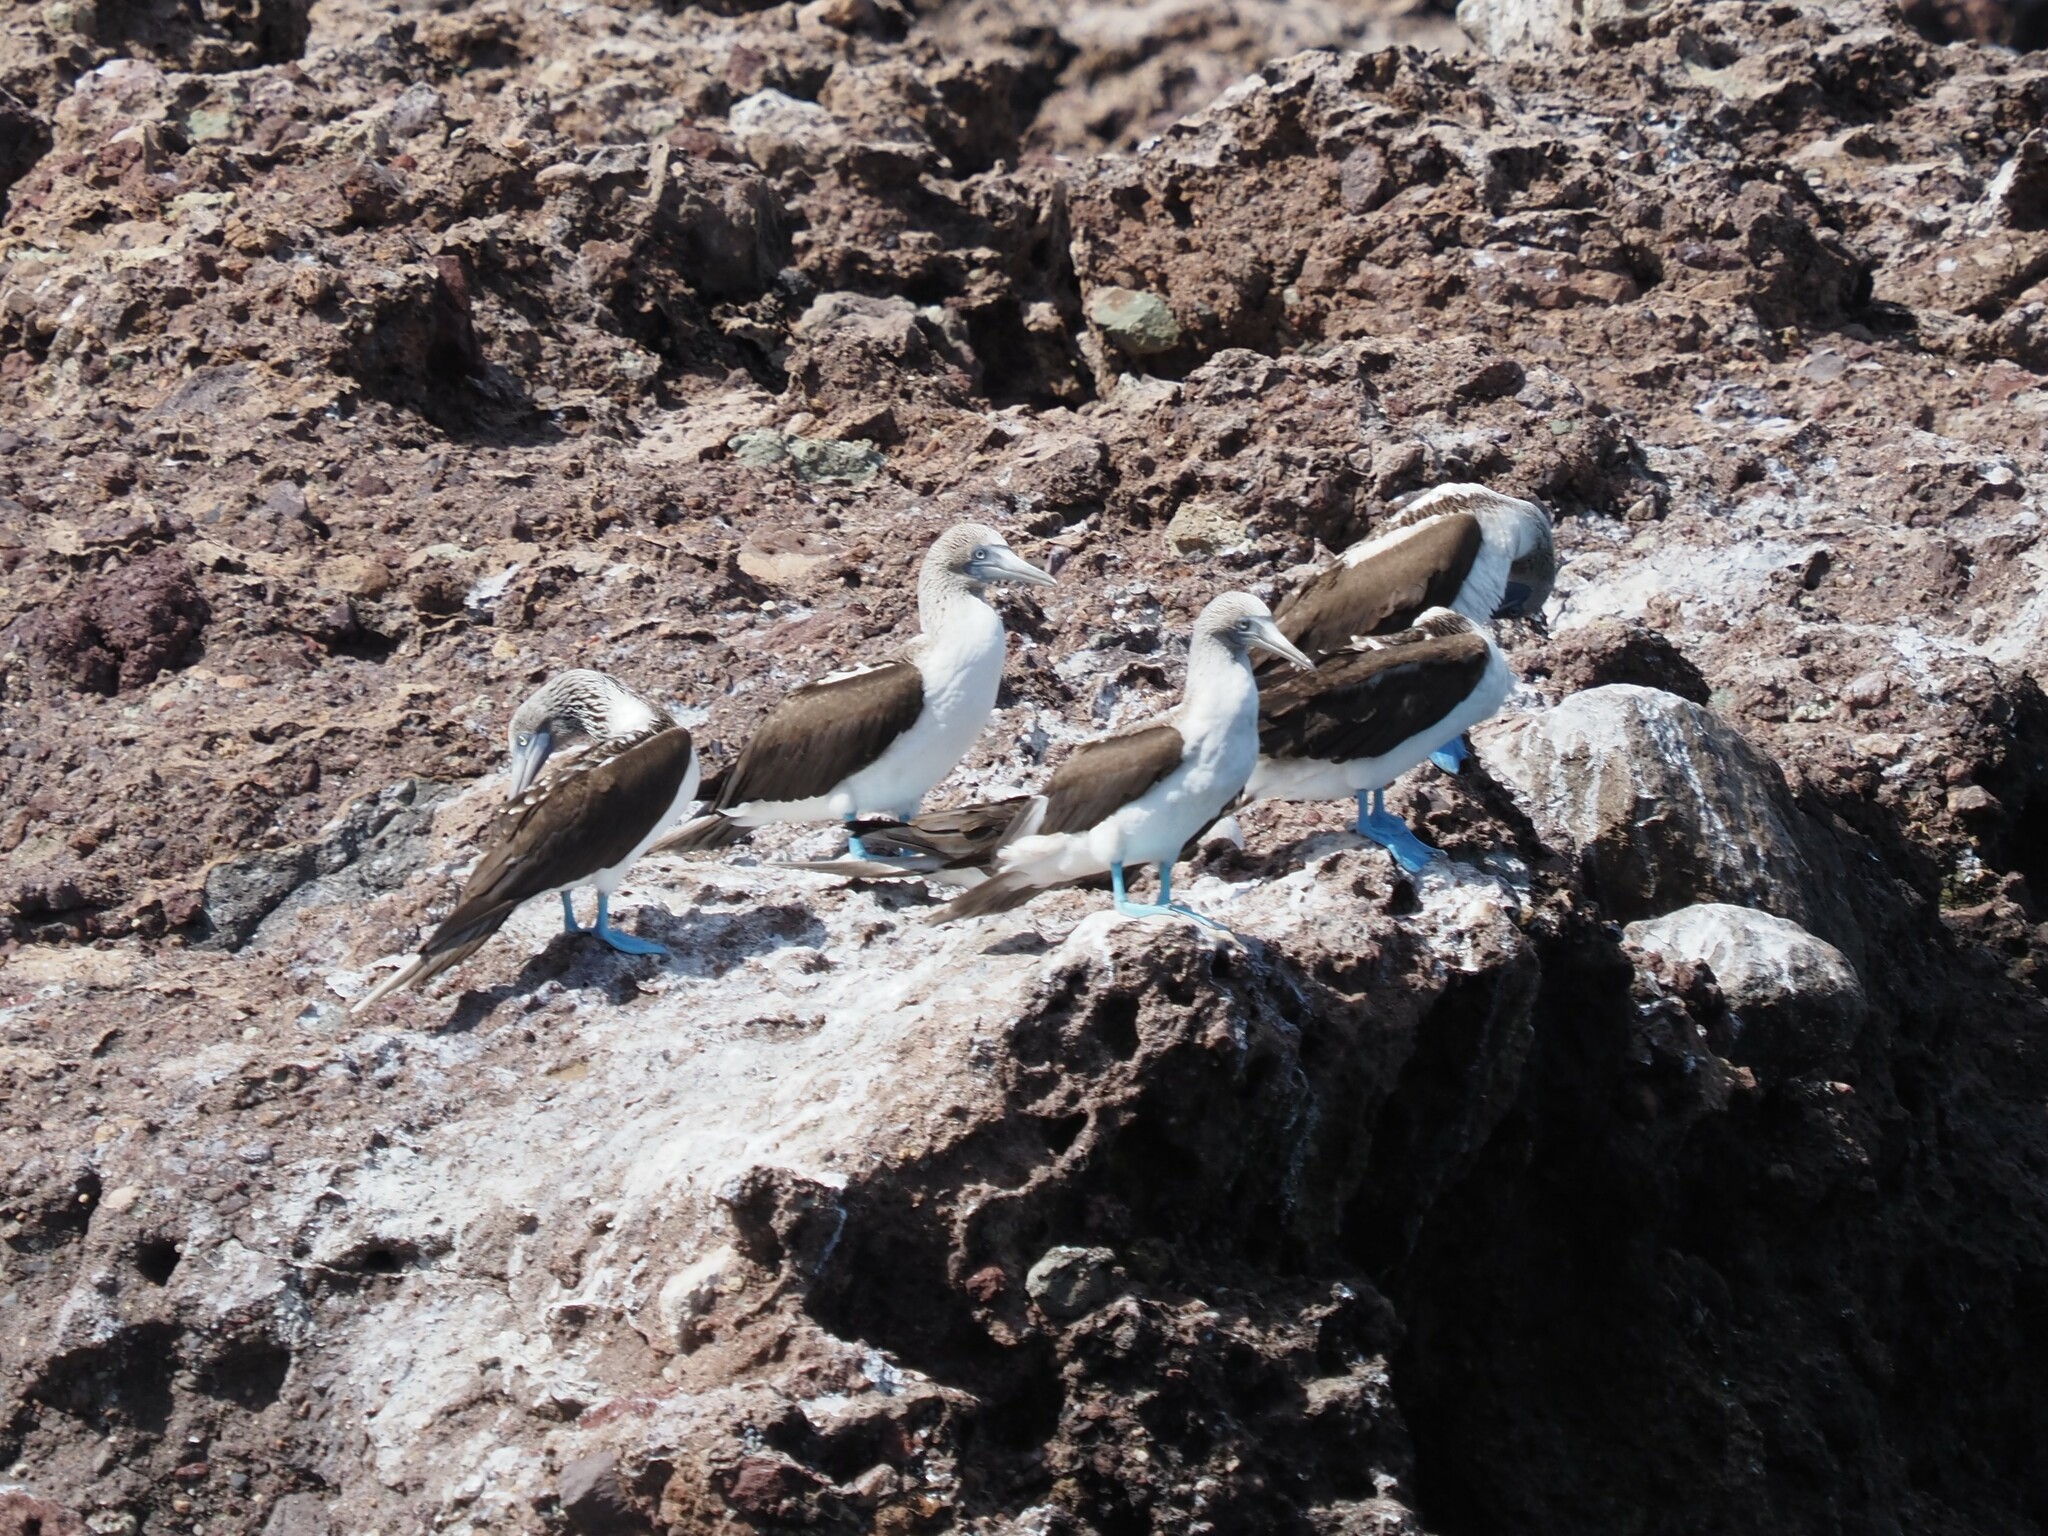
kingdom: Animalia
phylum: Chordata
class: Aves
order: Suliformes
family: Sulidae
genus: Sula
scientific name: Sula nebouxii
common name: Blue-footed booby
